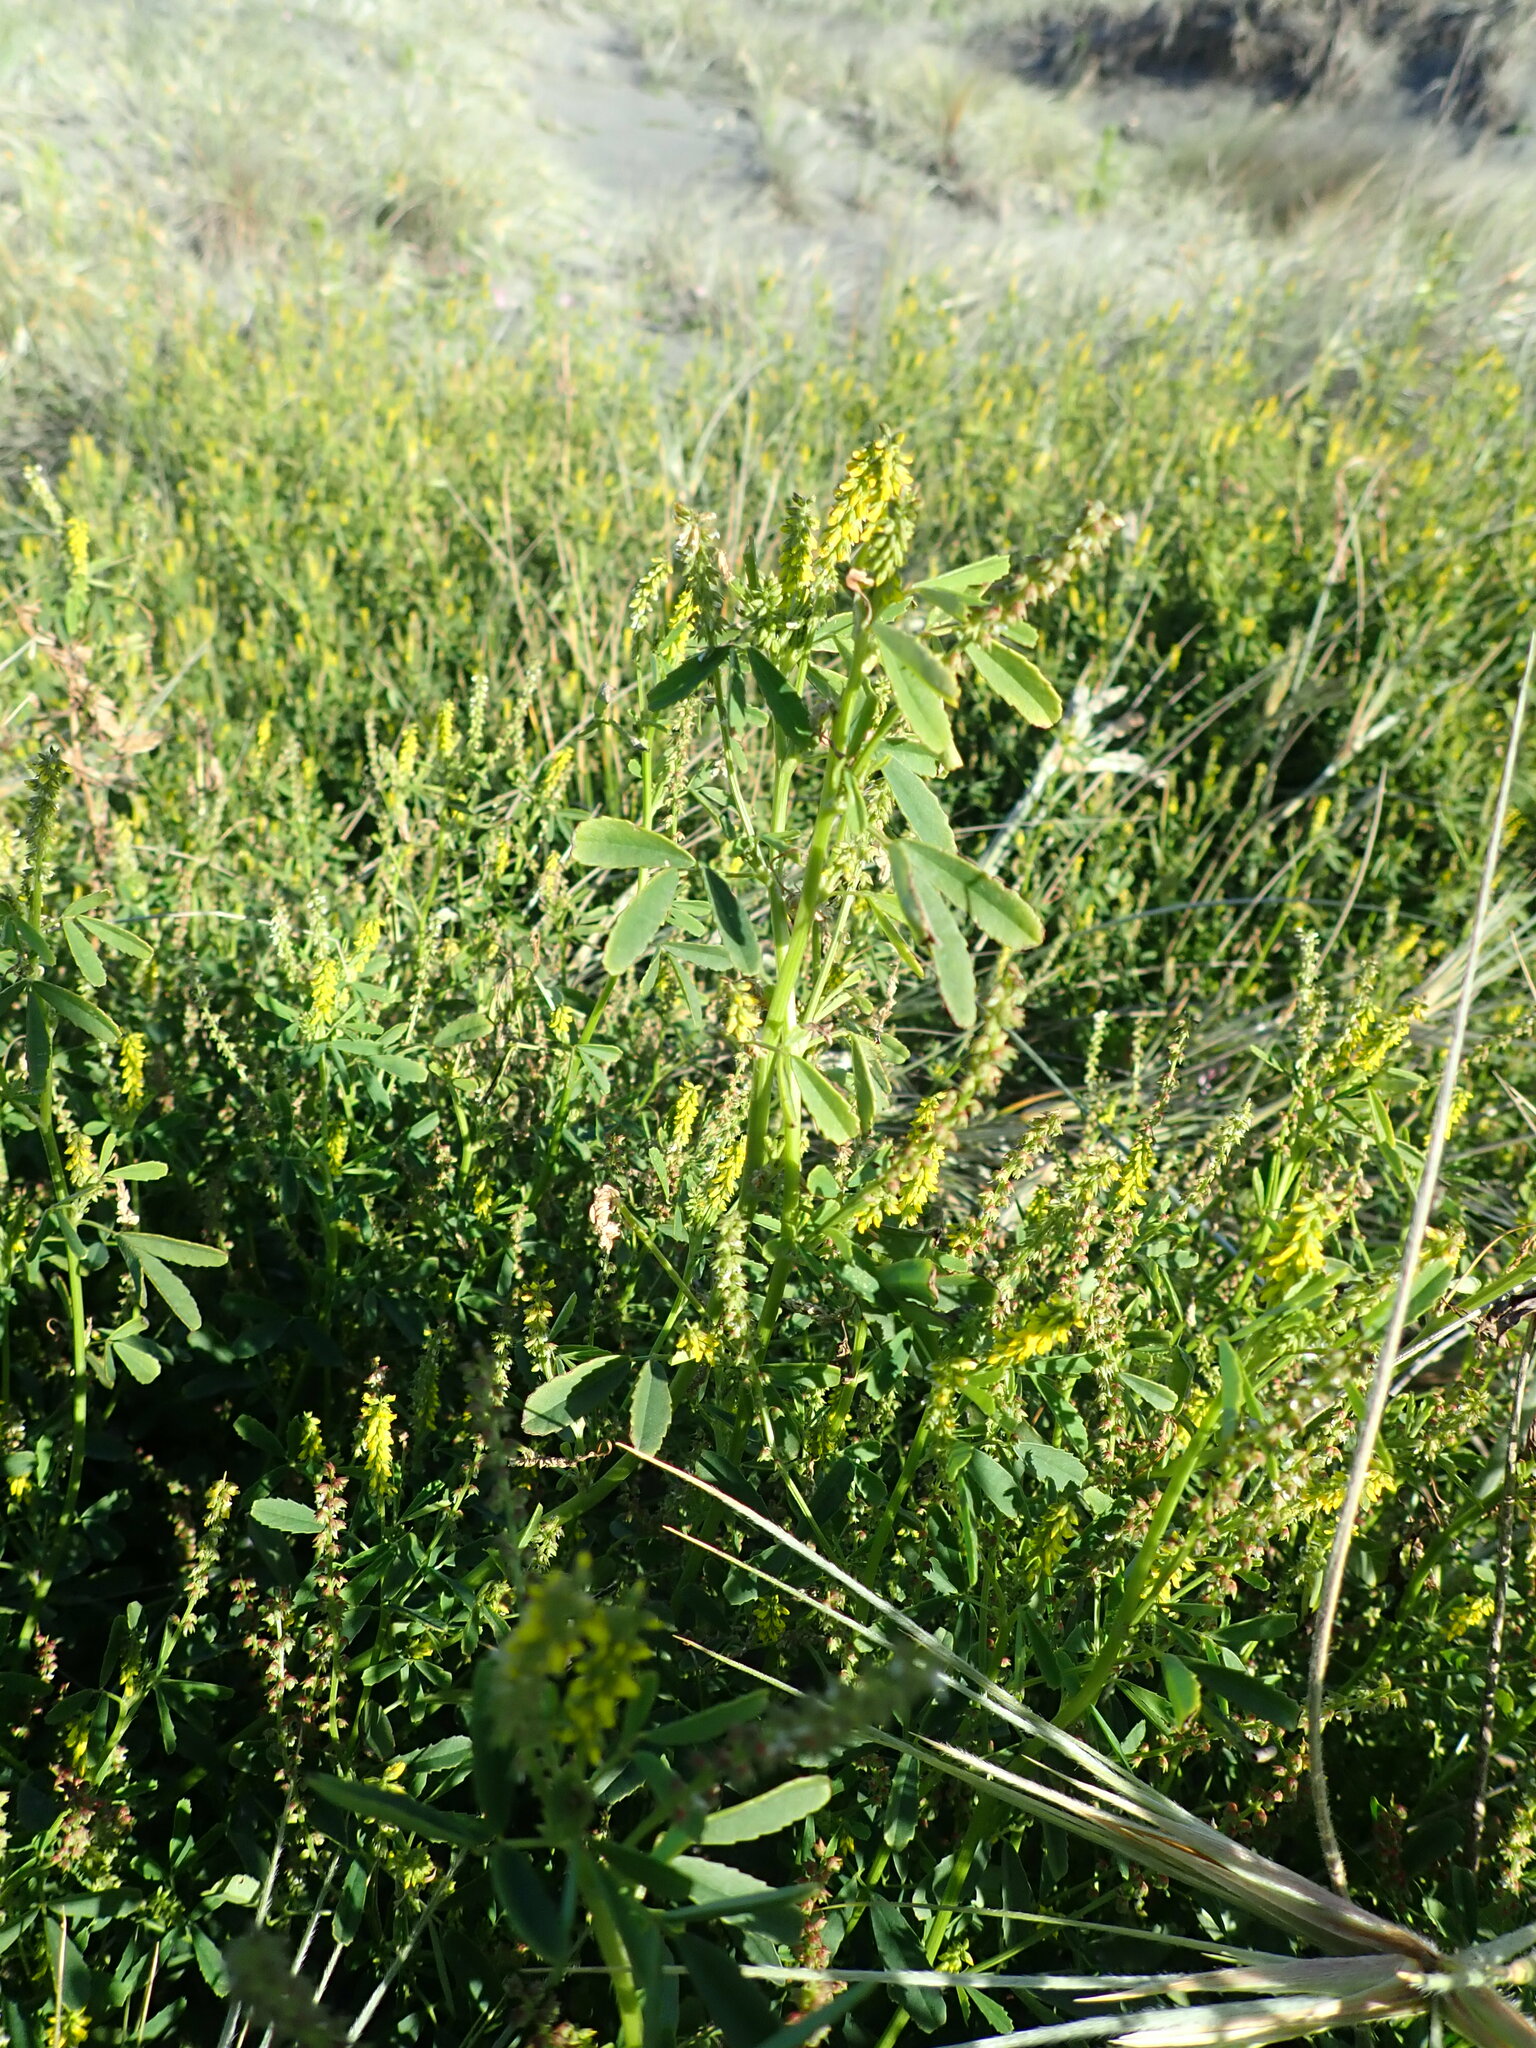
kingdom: Plantae
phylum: Tracheophyta
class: Magnoliopsida
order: Fabales
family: Fabaceae
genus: Melilotus
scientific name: Melilotus indicus
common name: Small melilot
